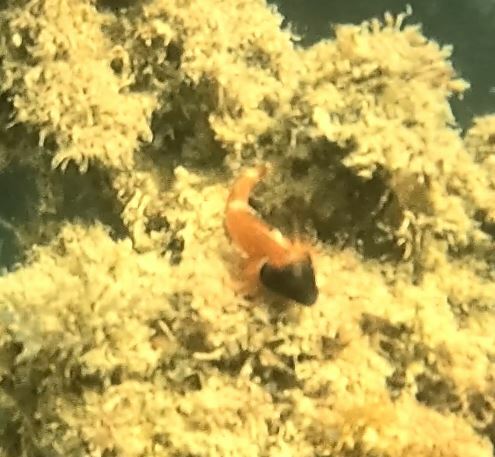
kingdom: Animalia
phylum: Chordata
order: Perciformes
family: Tripterygiidae
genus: Enneapterygius
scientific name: Enneapterygius atrogulare
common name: Blackthroat triplefin
